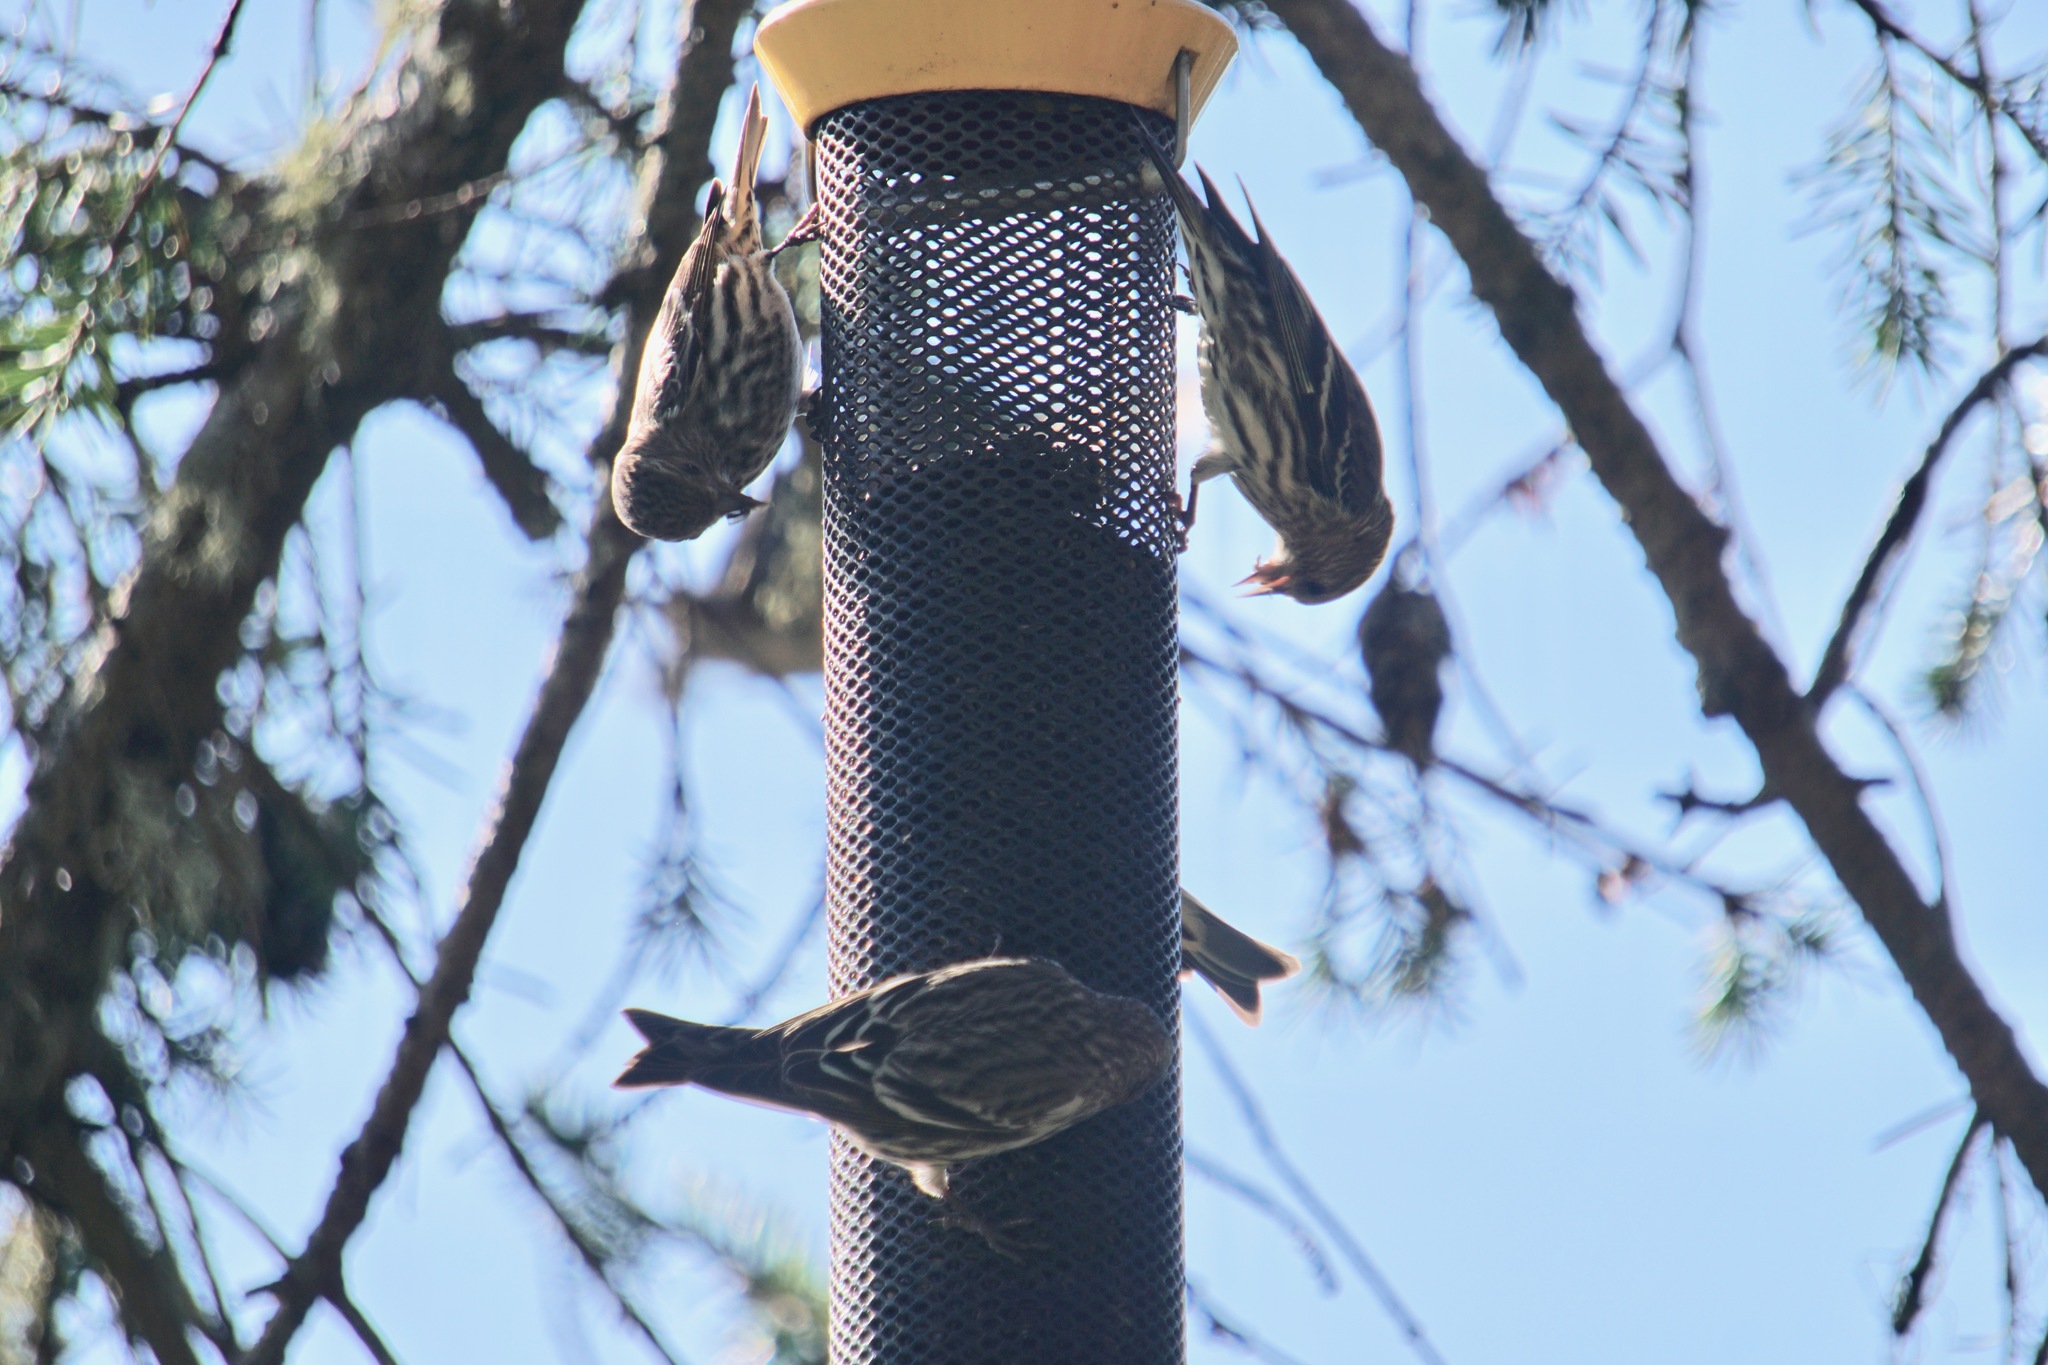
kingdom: Animalia
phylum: Chordata
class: Aves
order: Passeriformes
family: Fringillidae
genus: Spinus
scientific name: Spinus pinus
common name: Pine siskin
